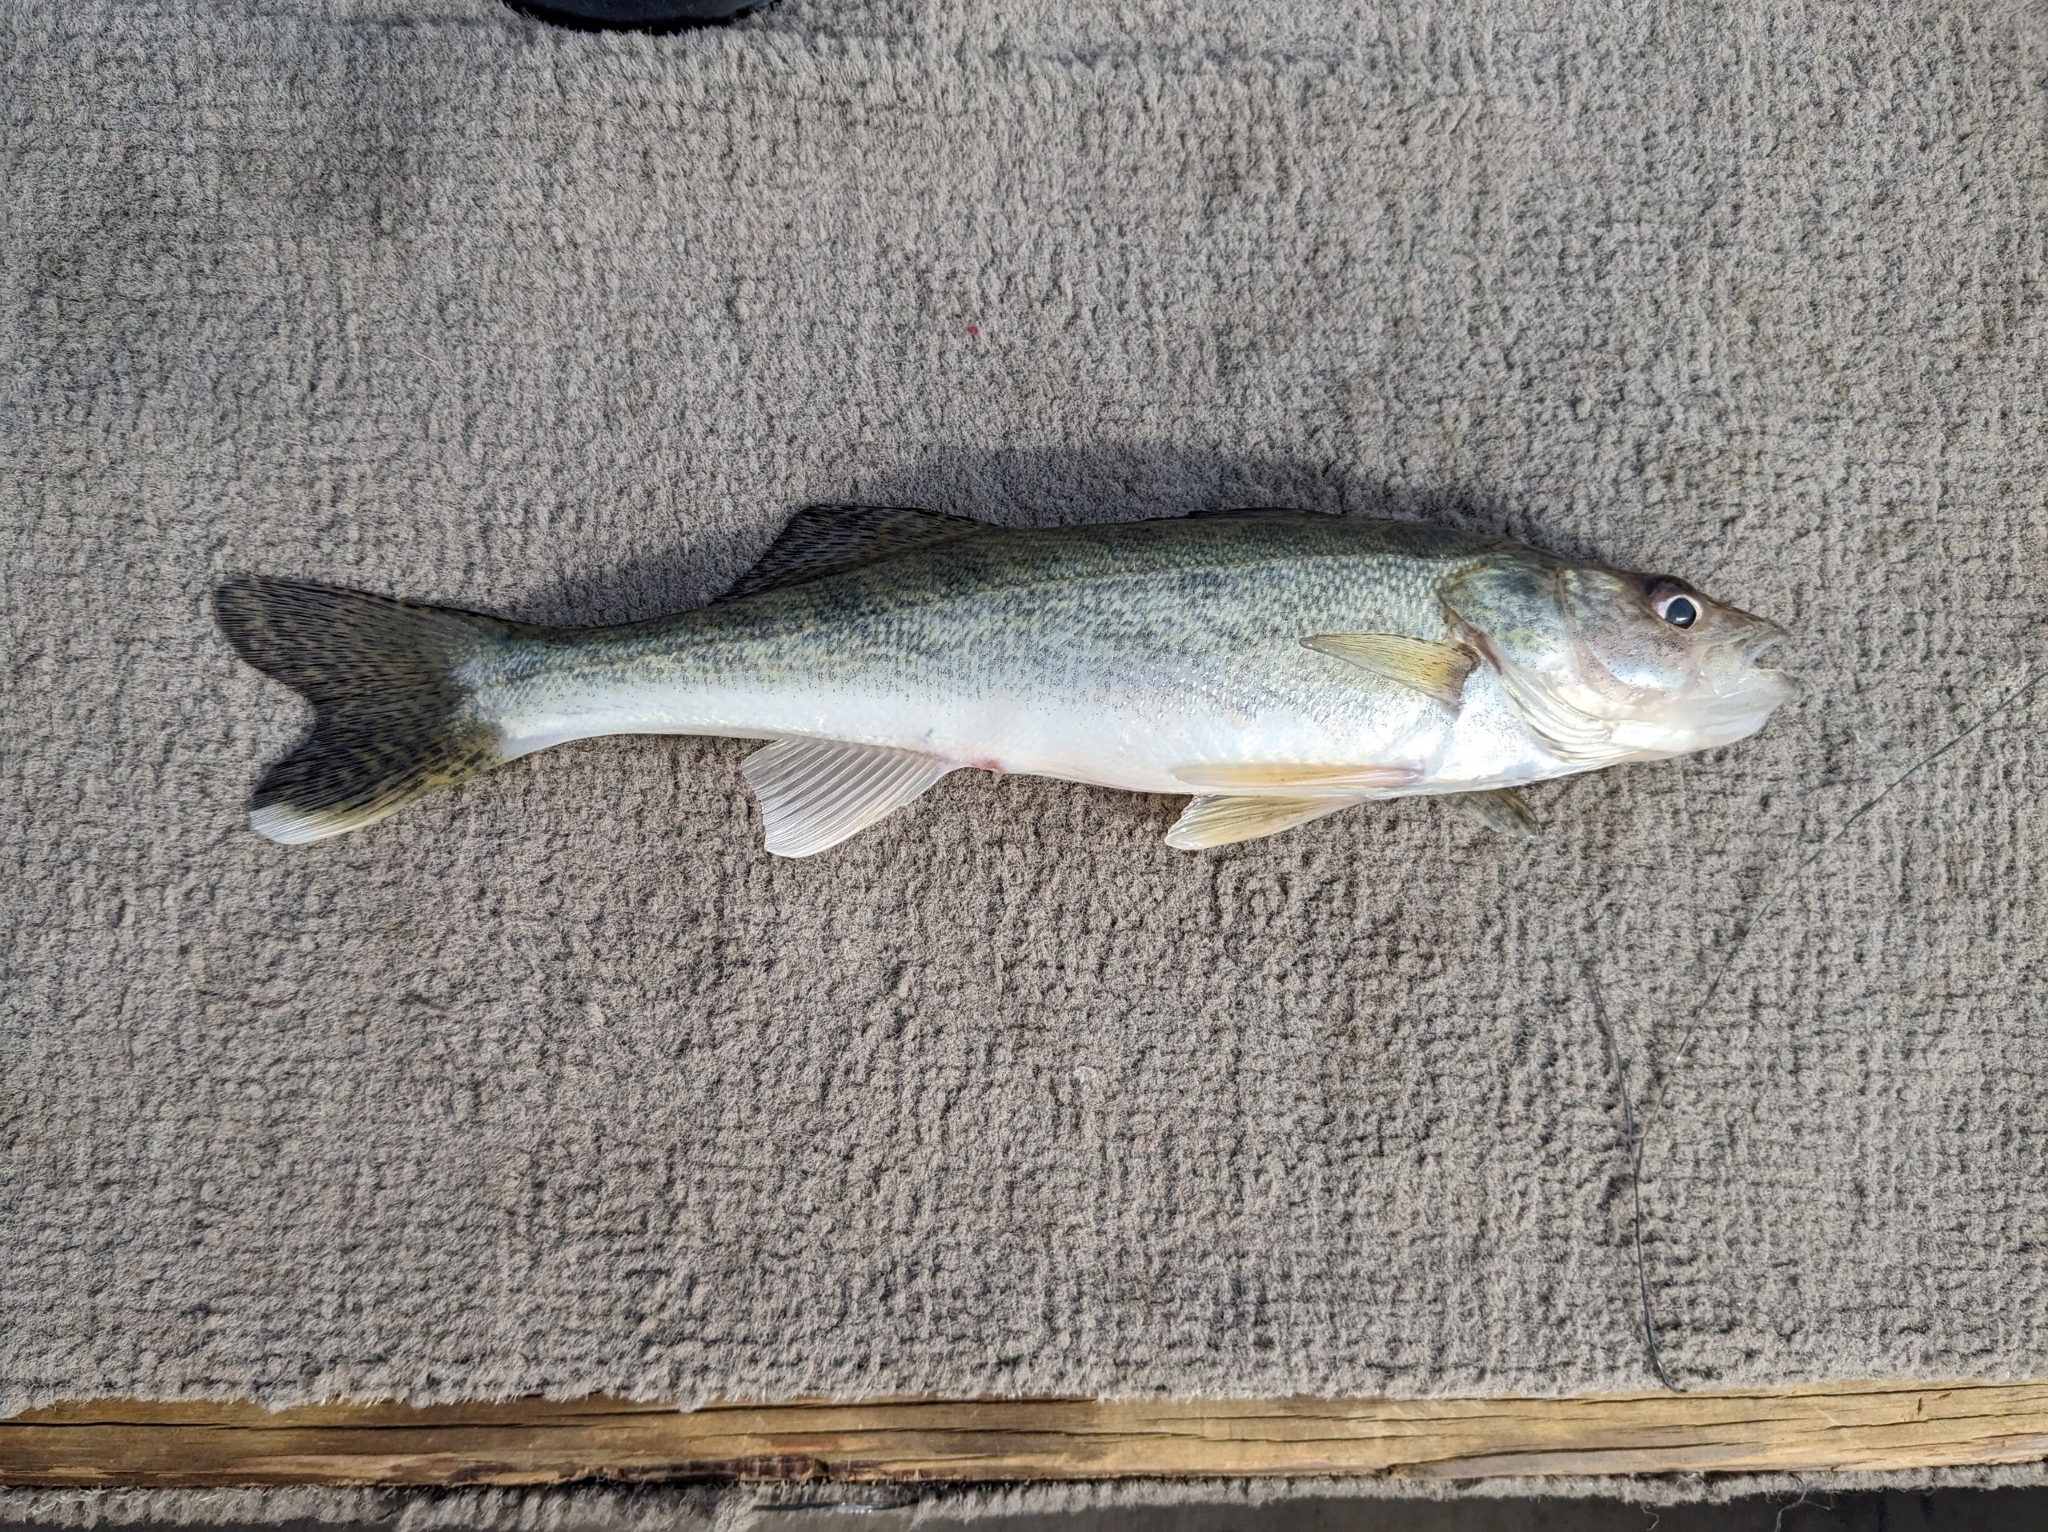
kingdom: Animalia
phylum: Chordata
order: Perciformes
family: Percidae
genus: Sander
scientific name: Sander vitreus
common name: Walleye
